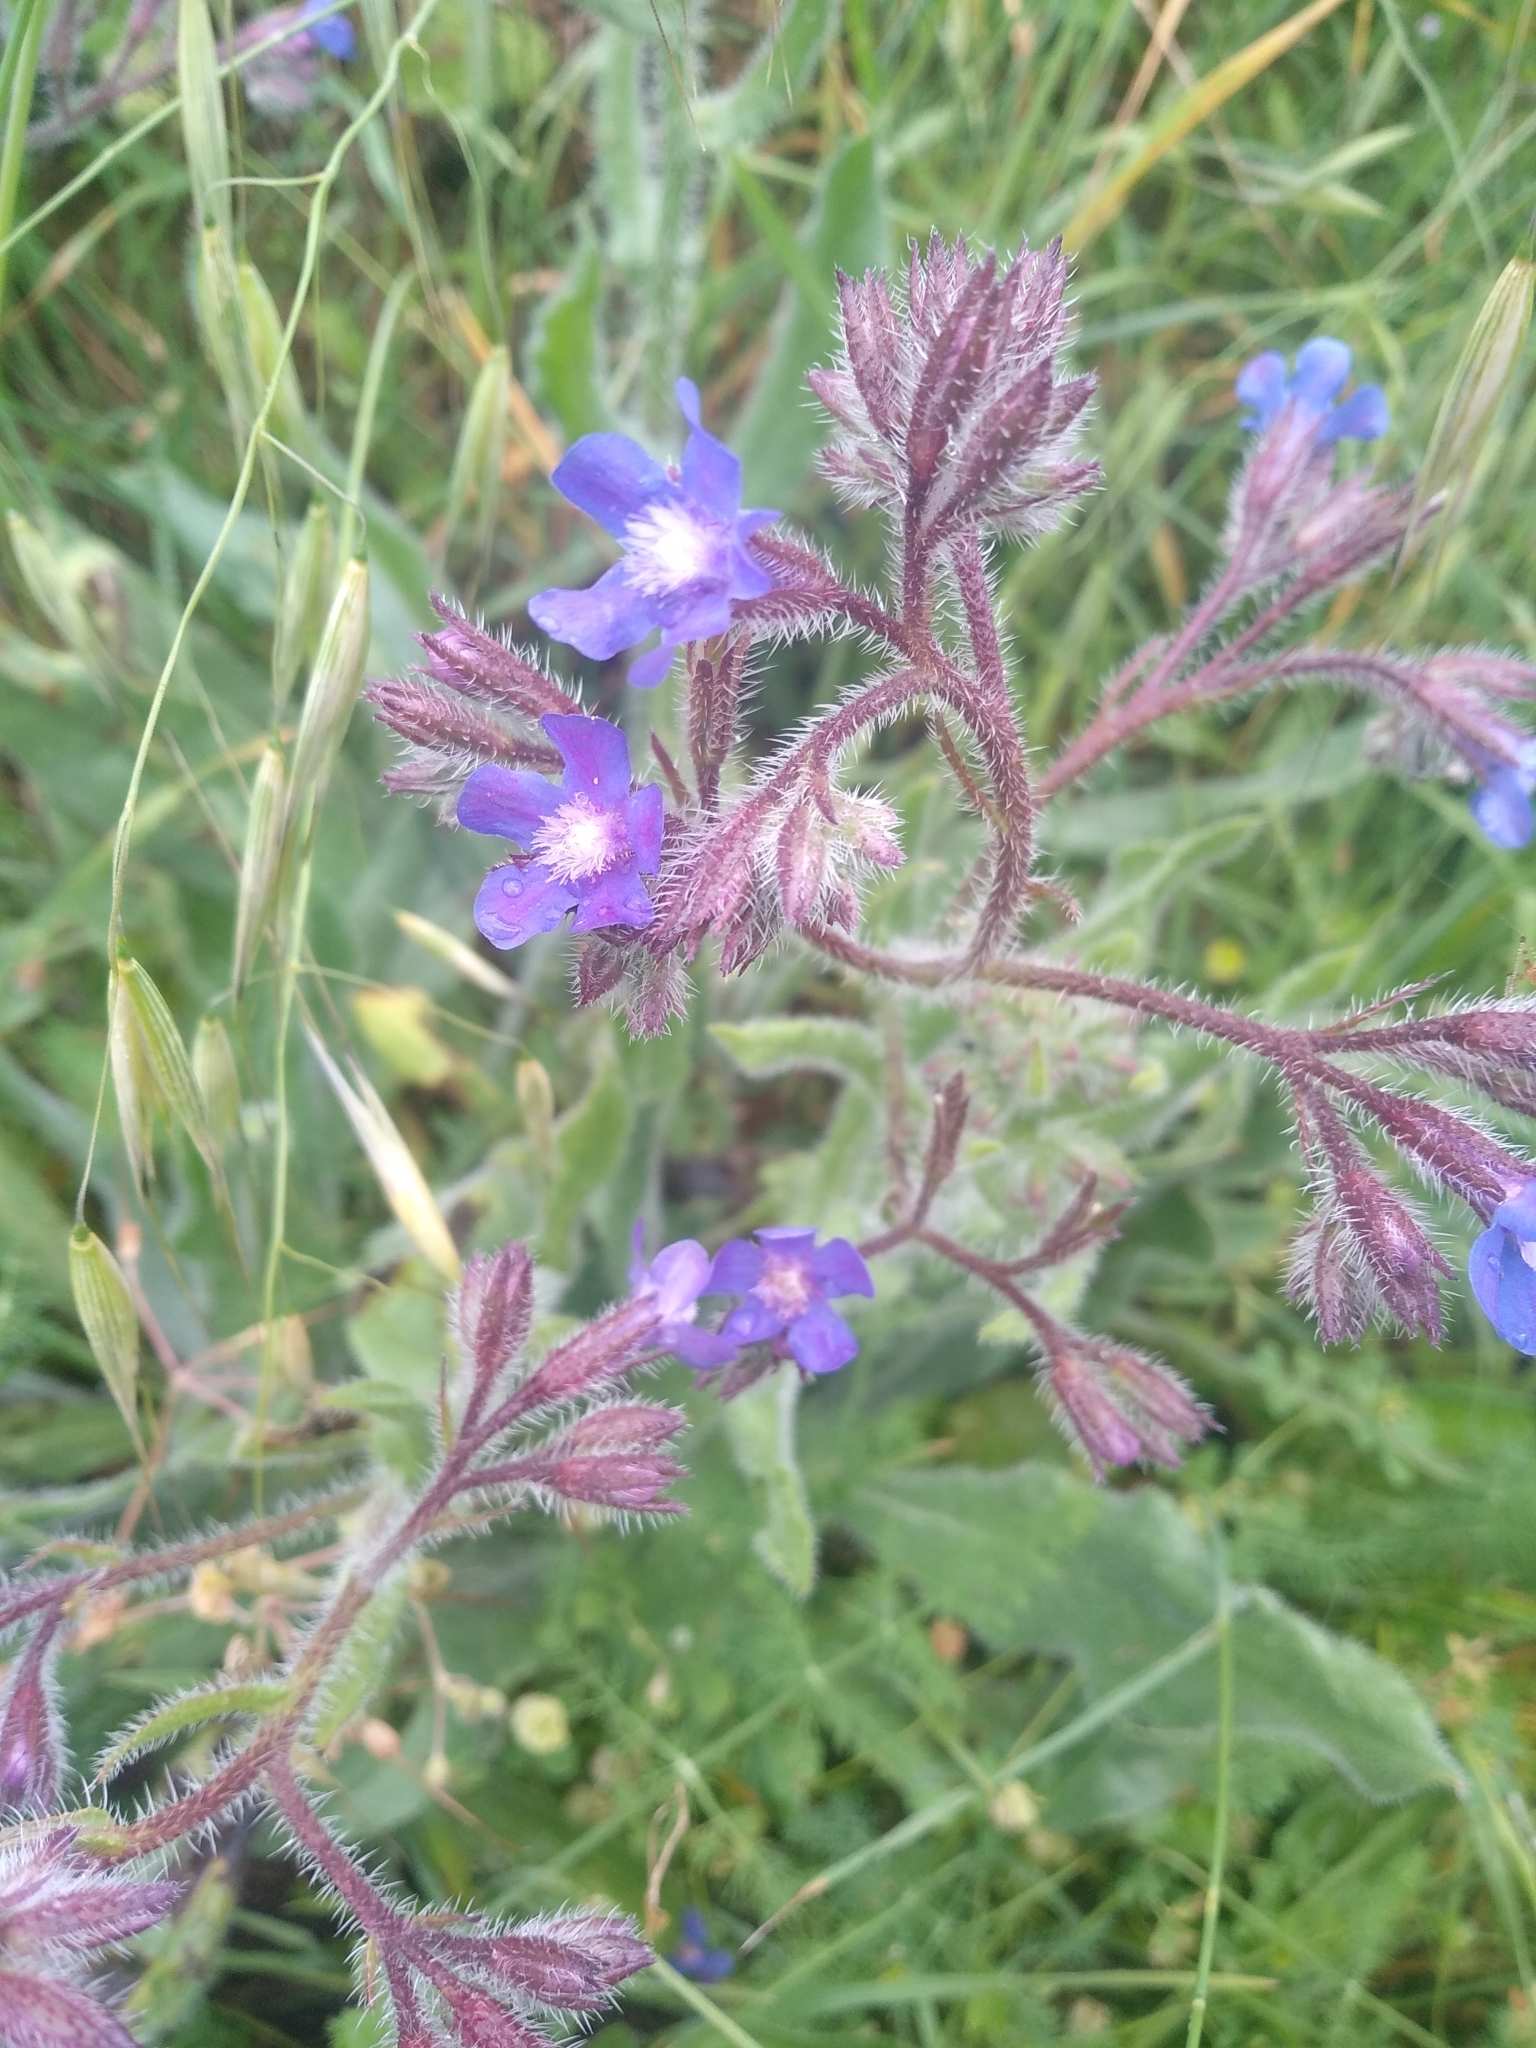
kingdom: Plantae
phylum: Tracheophyta
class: Magnoliopsida
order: Boraginales
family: Boraginaceae
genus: Anchusa
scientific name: Anchusa azurea
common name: Garden anchusa
